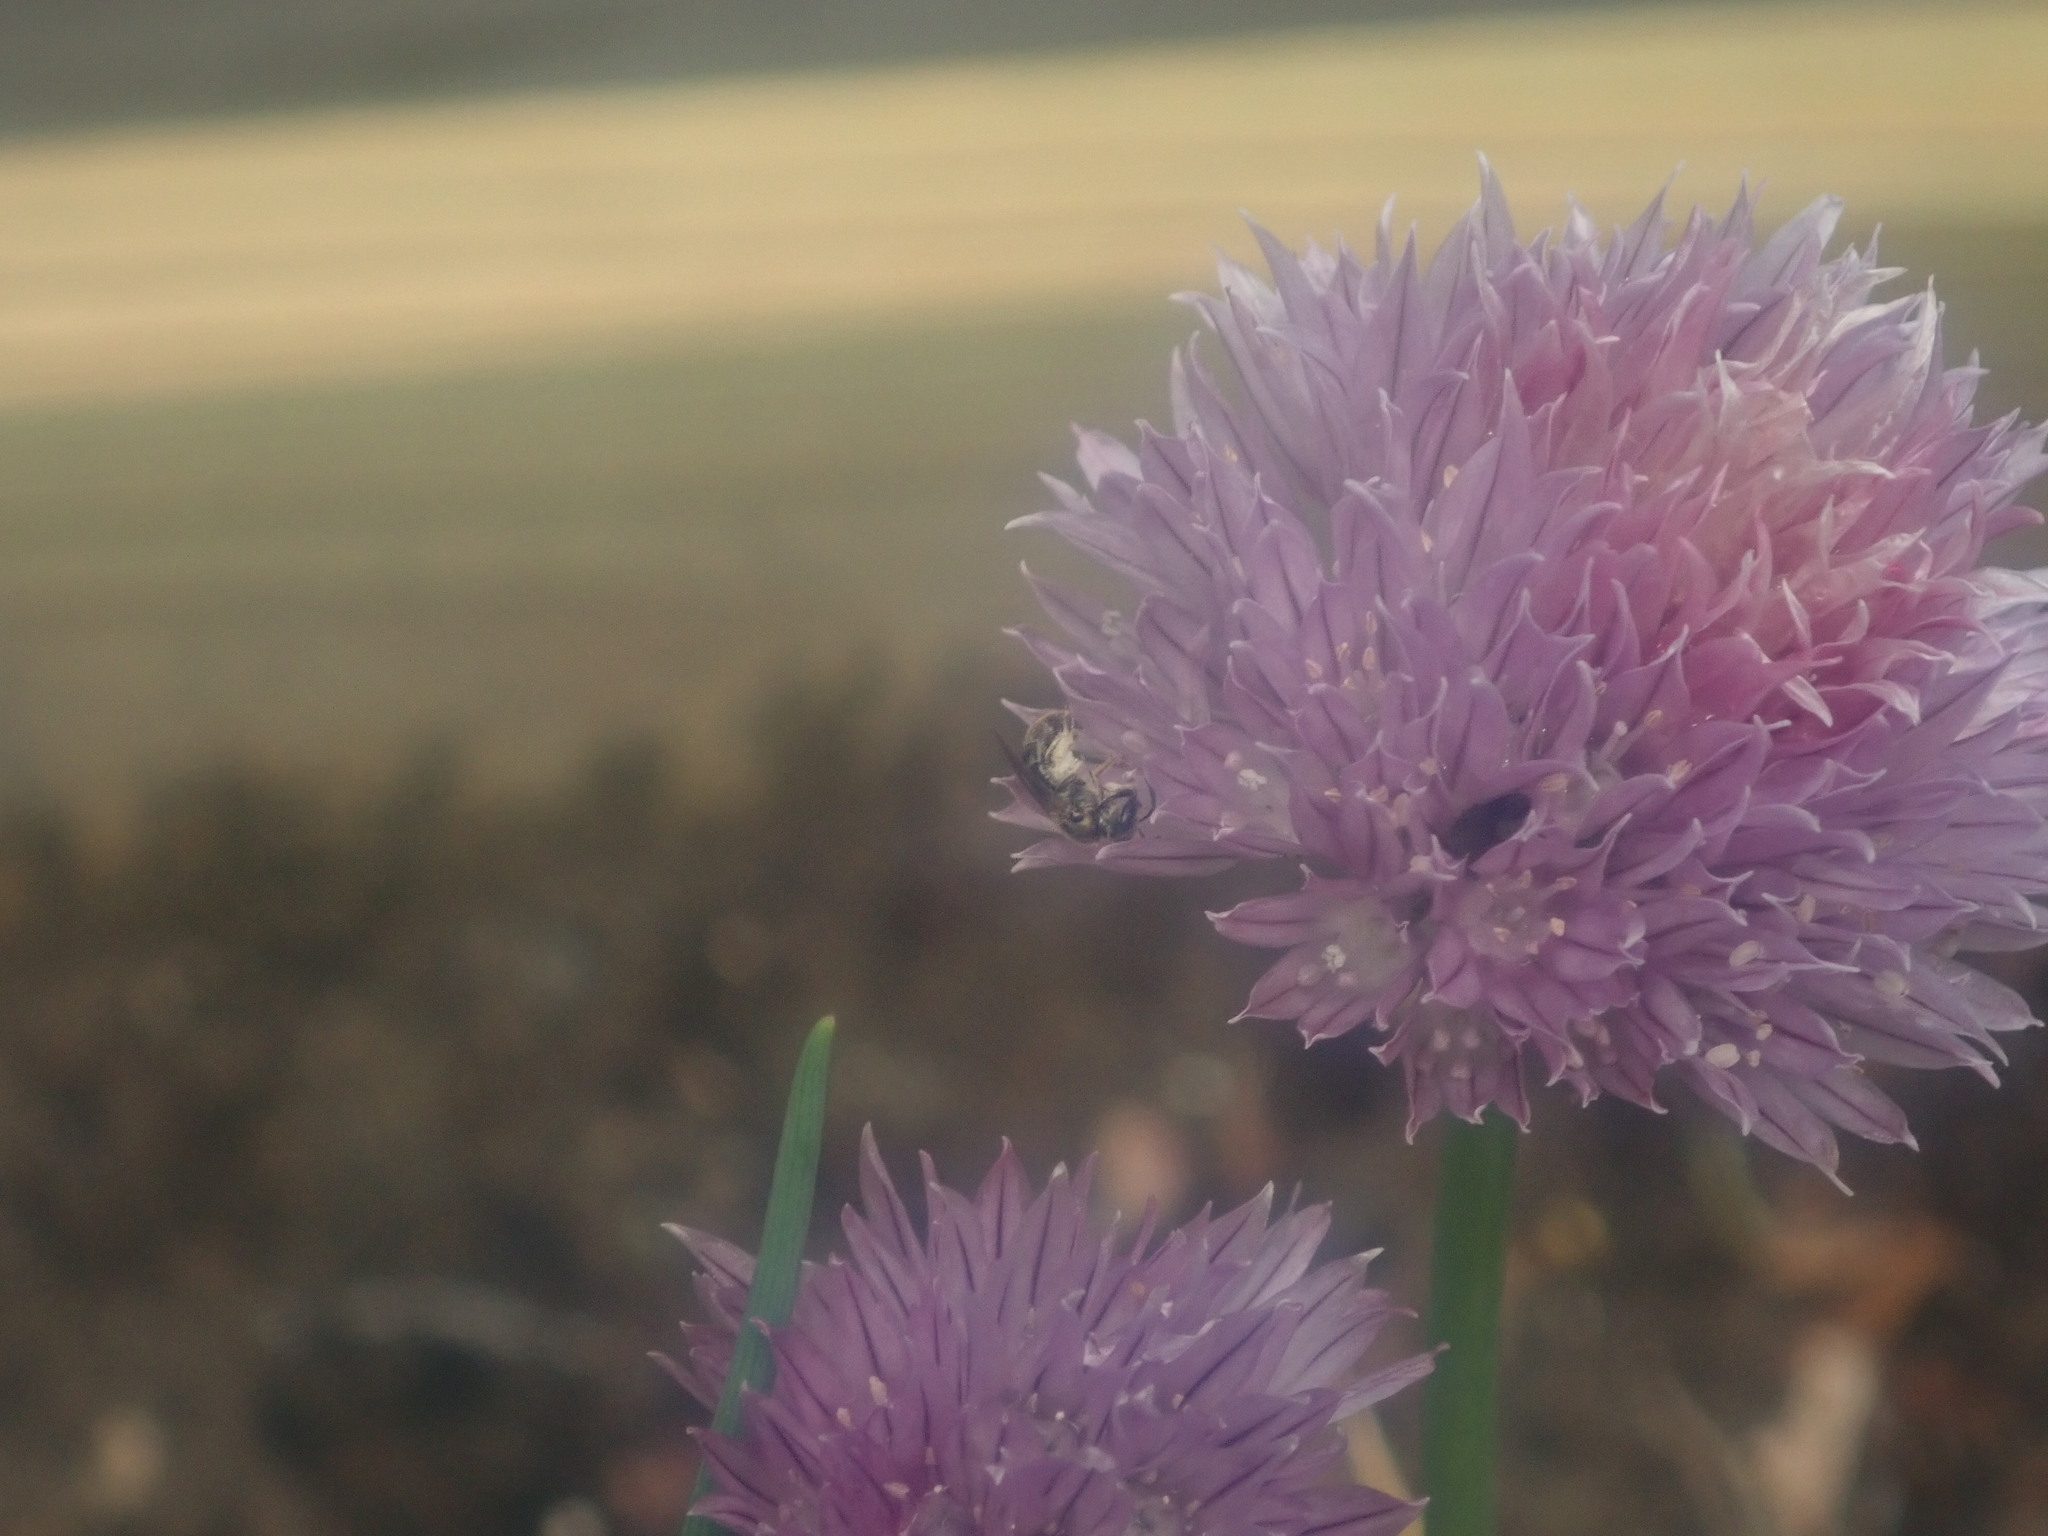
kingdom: Animalia
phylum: Arthropoda
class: Insecta
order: Hymenoptera
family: Halictidae
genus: Dialictus
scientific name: Dialictus
